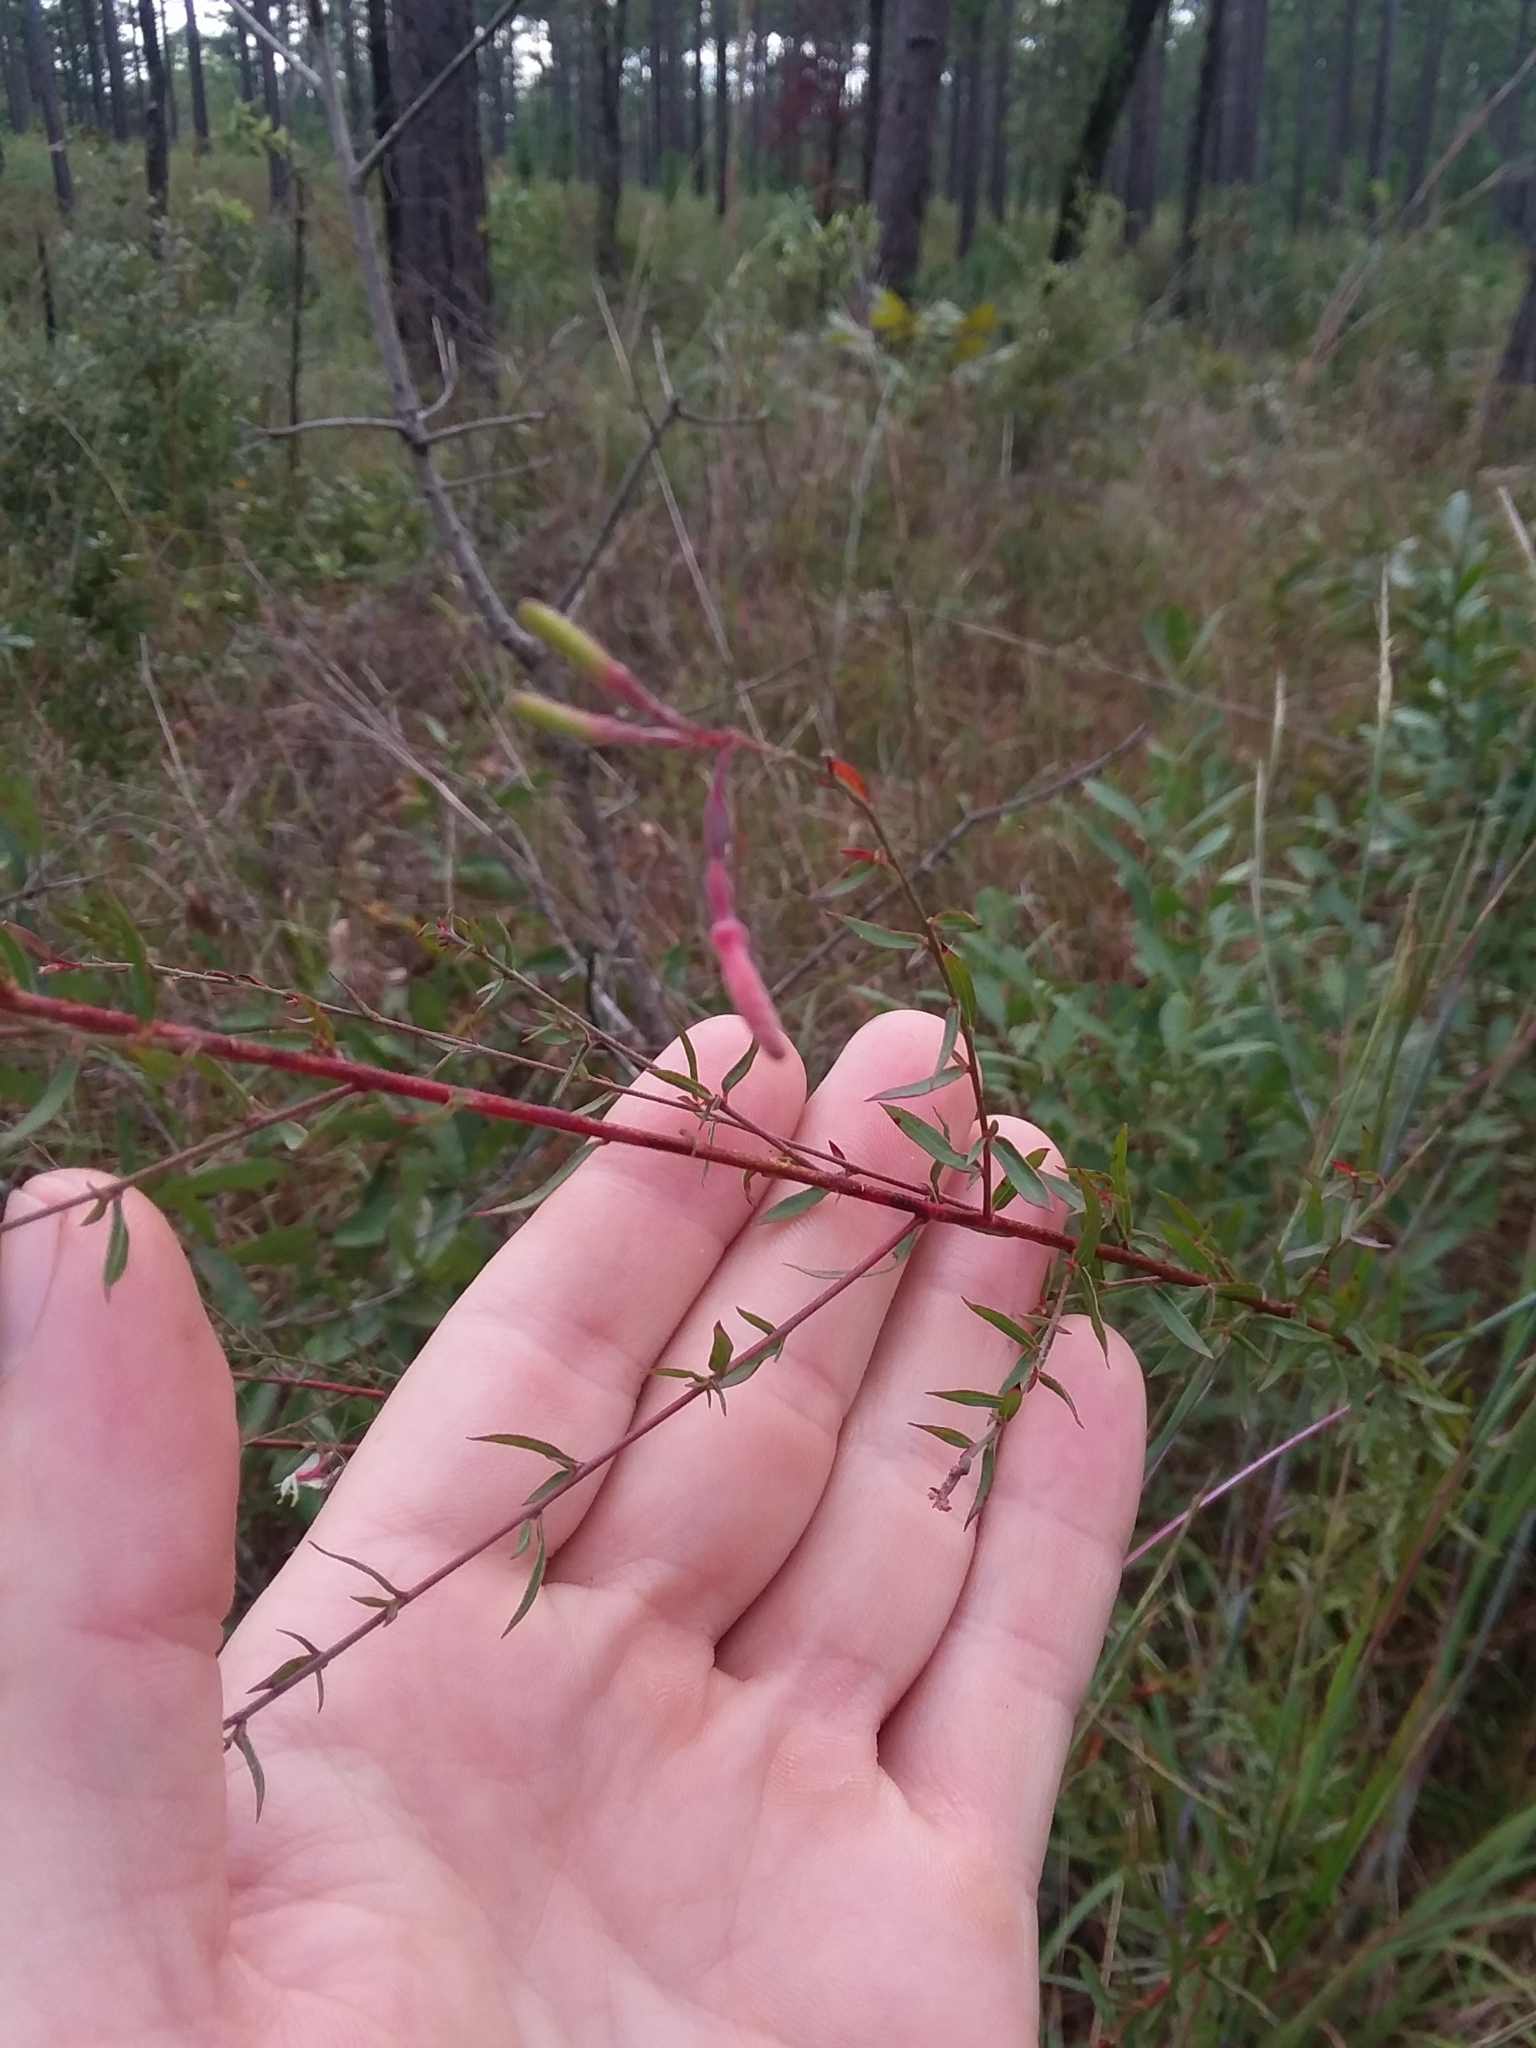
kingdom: Plantae
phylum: Tracheophyta
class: Magnoliopsida
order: Myrtales
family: Onagraceae
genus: Oenothera
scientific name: Oenothera filipes
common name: Slenderstalk beeblossom
